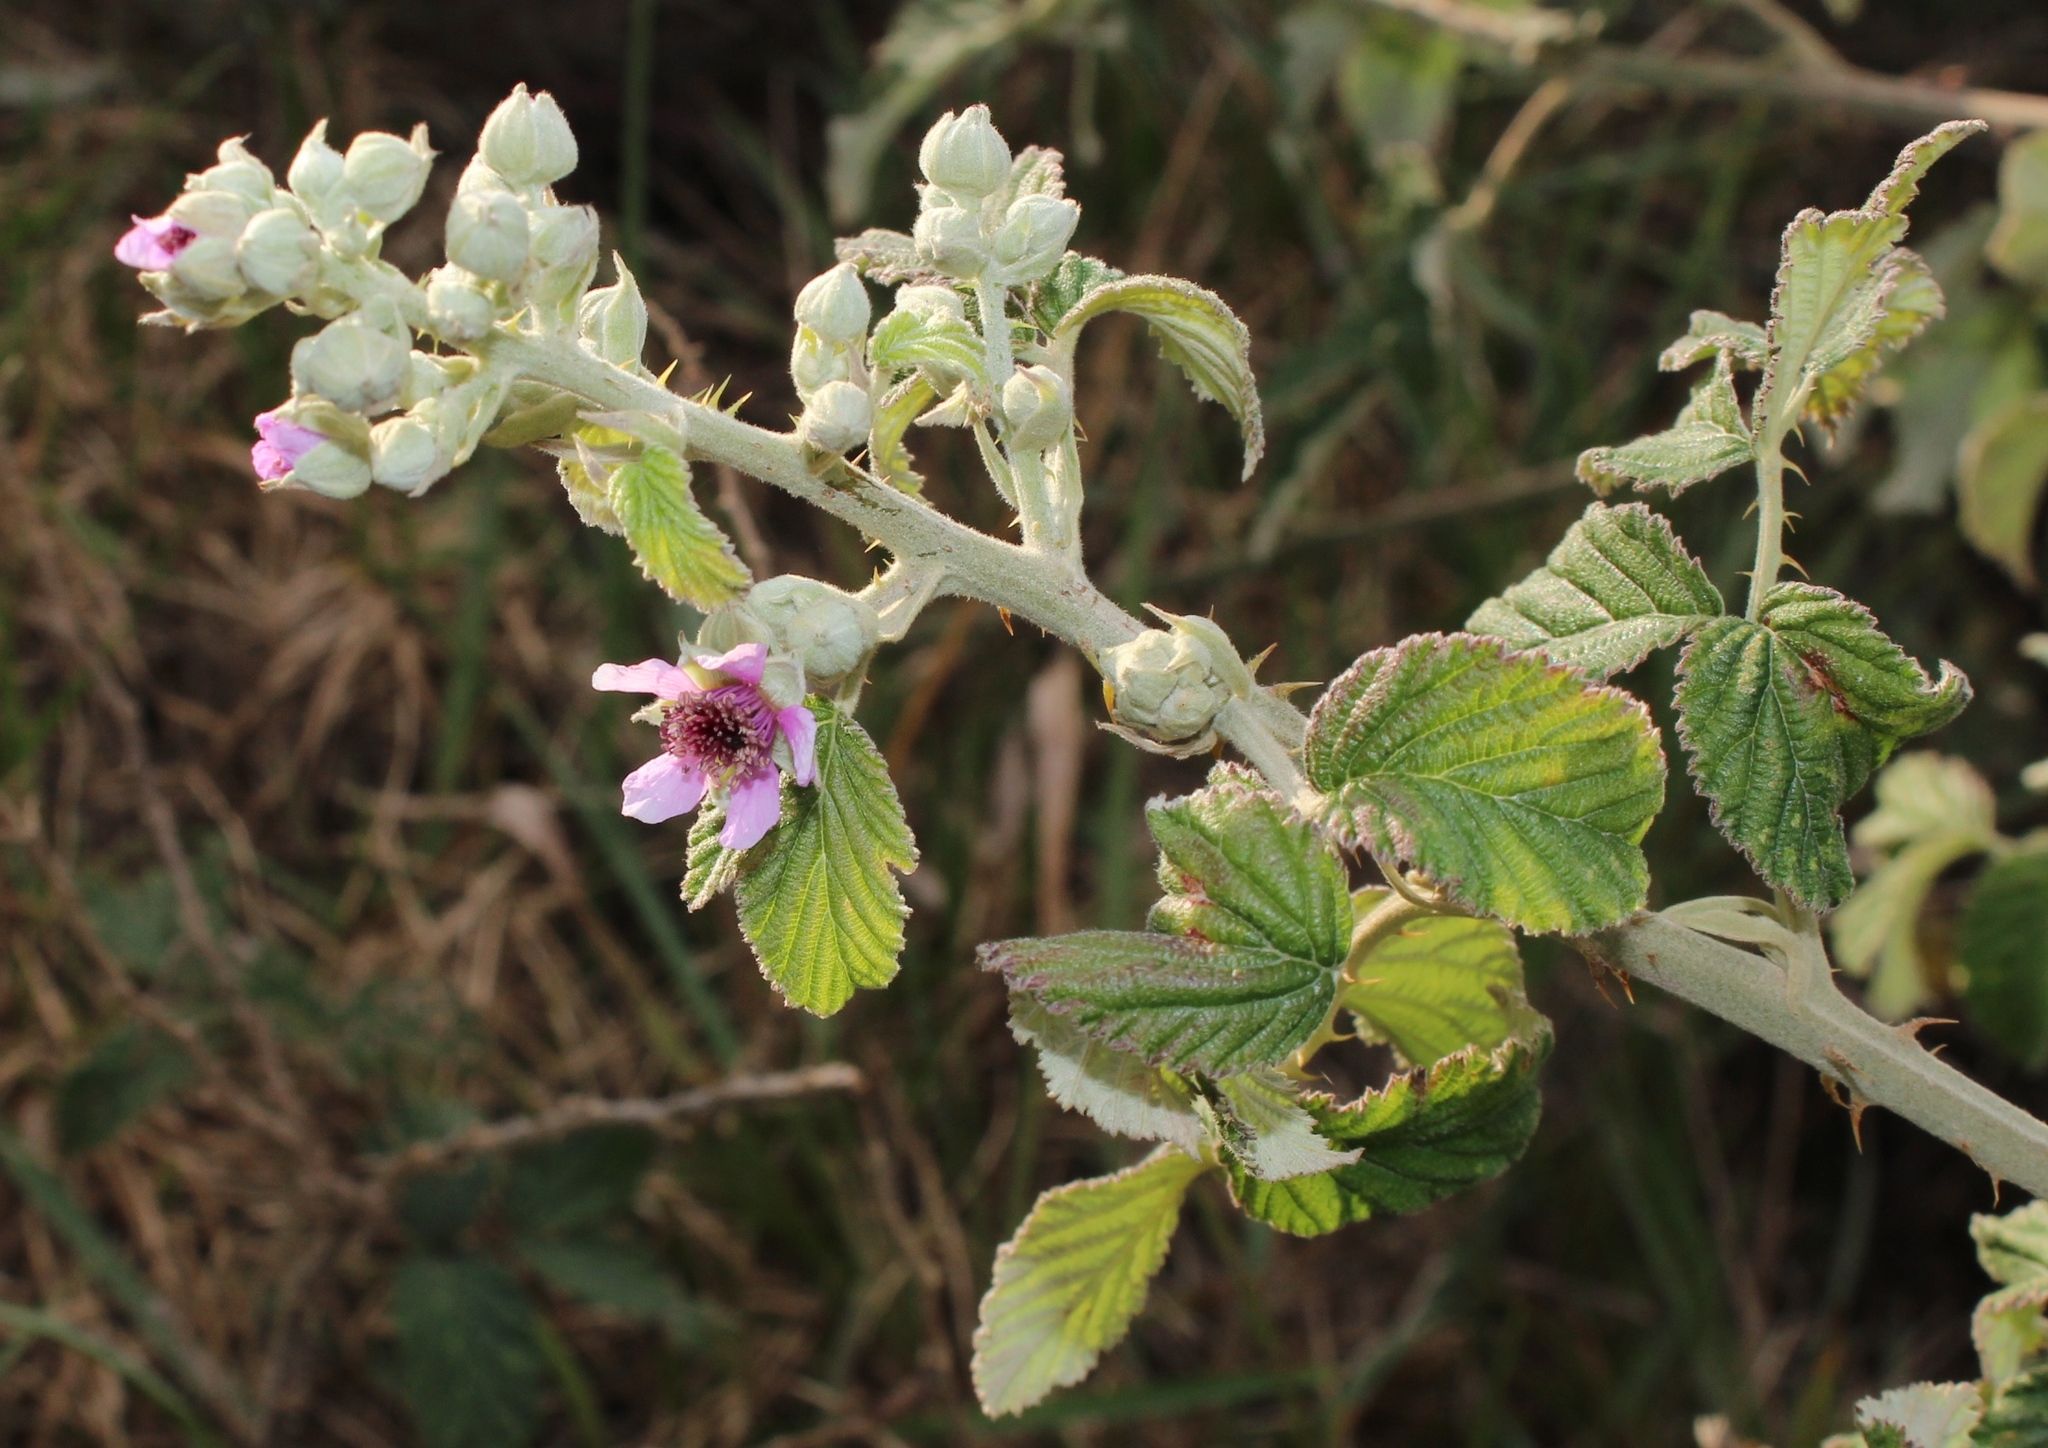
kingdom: Plantae
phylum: Tracheophyta
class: Magnoliopsida
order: Rosales
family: Rosaceae
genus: Rubus
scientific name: Rubus rigidus
